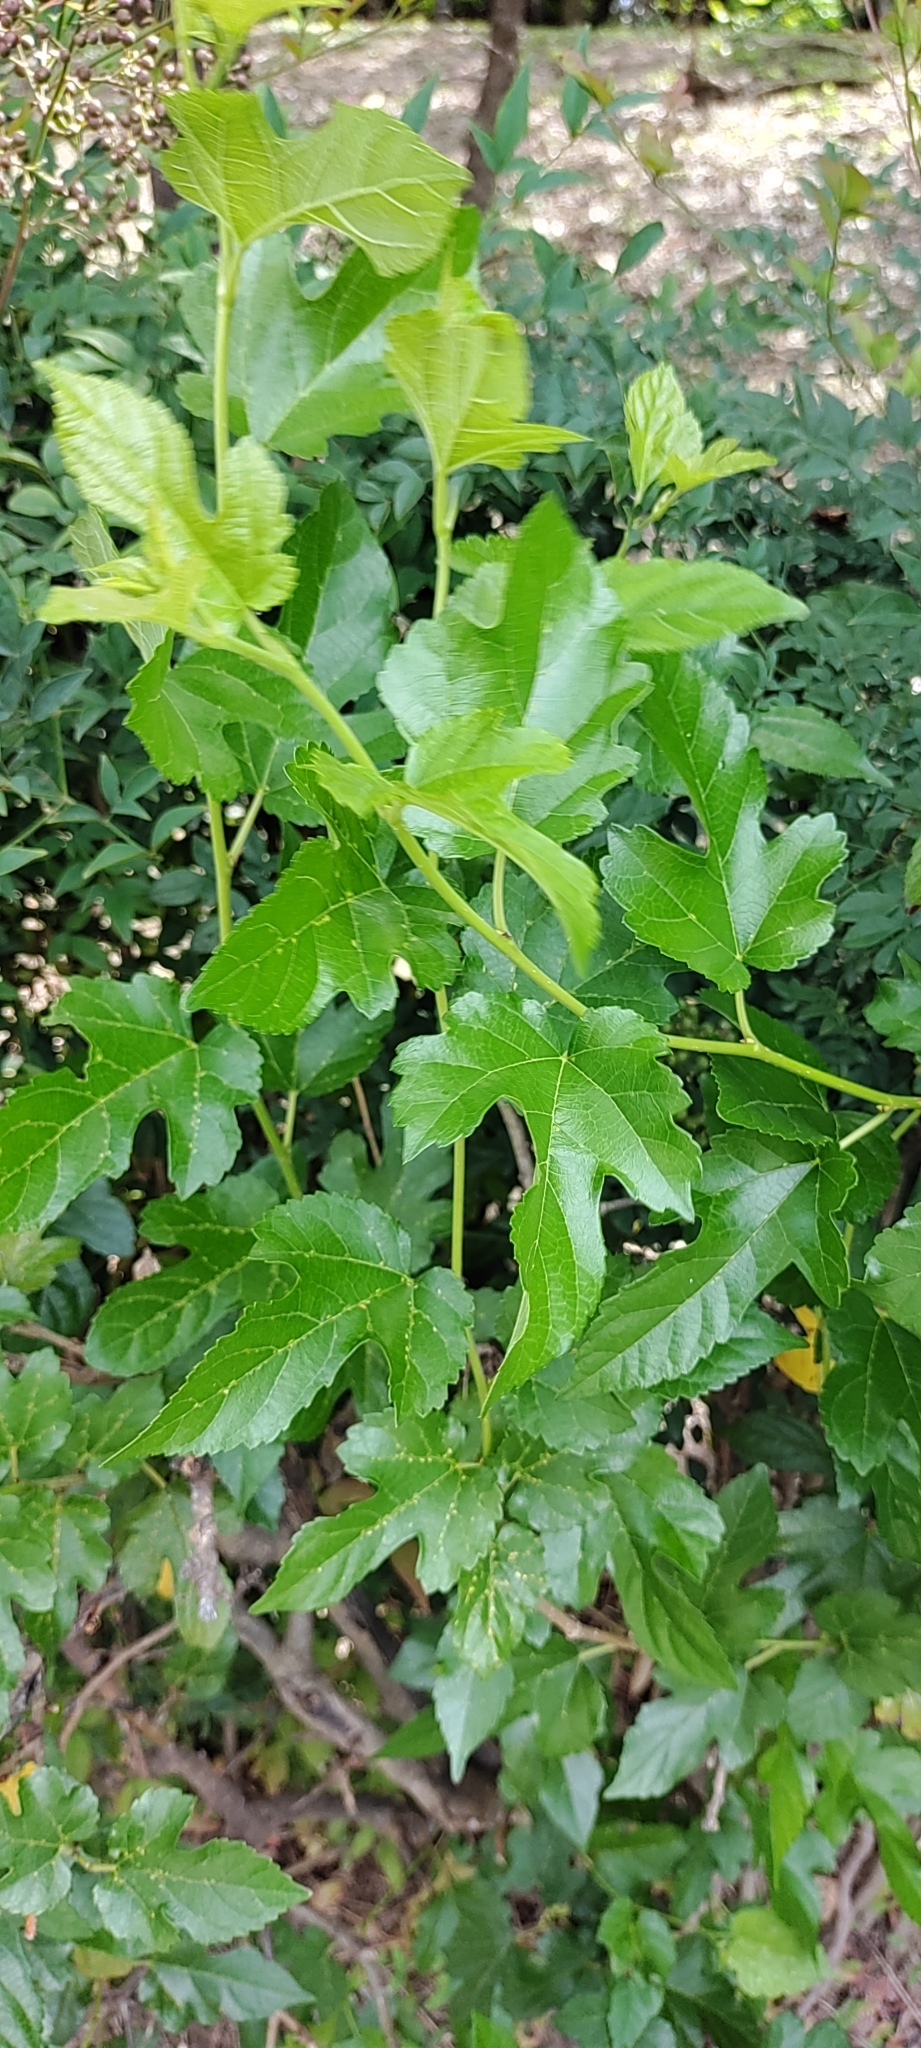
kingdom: Plantae
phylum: Tracheophyta
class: Magnoliopsida
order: Rosales
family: Moraceae
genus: Morus
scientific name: Morus indica
